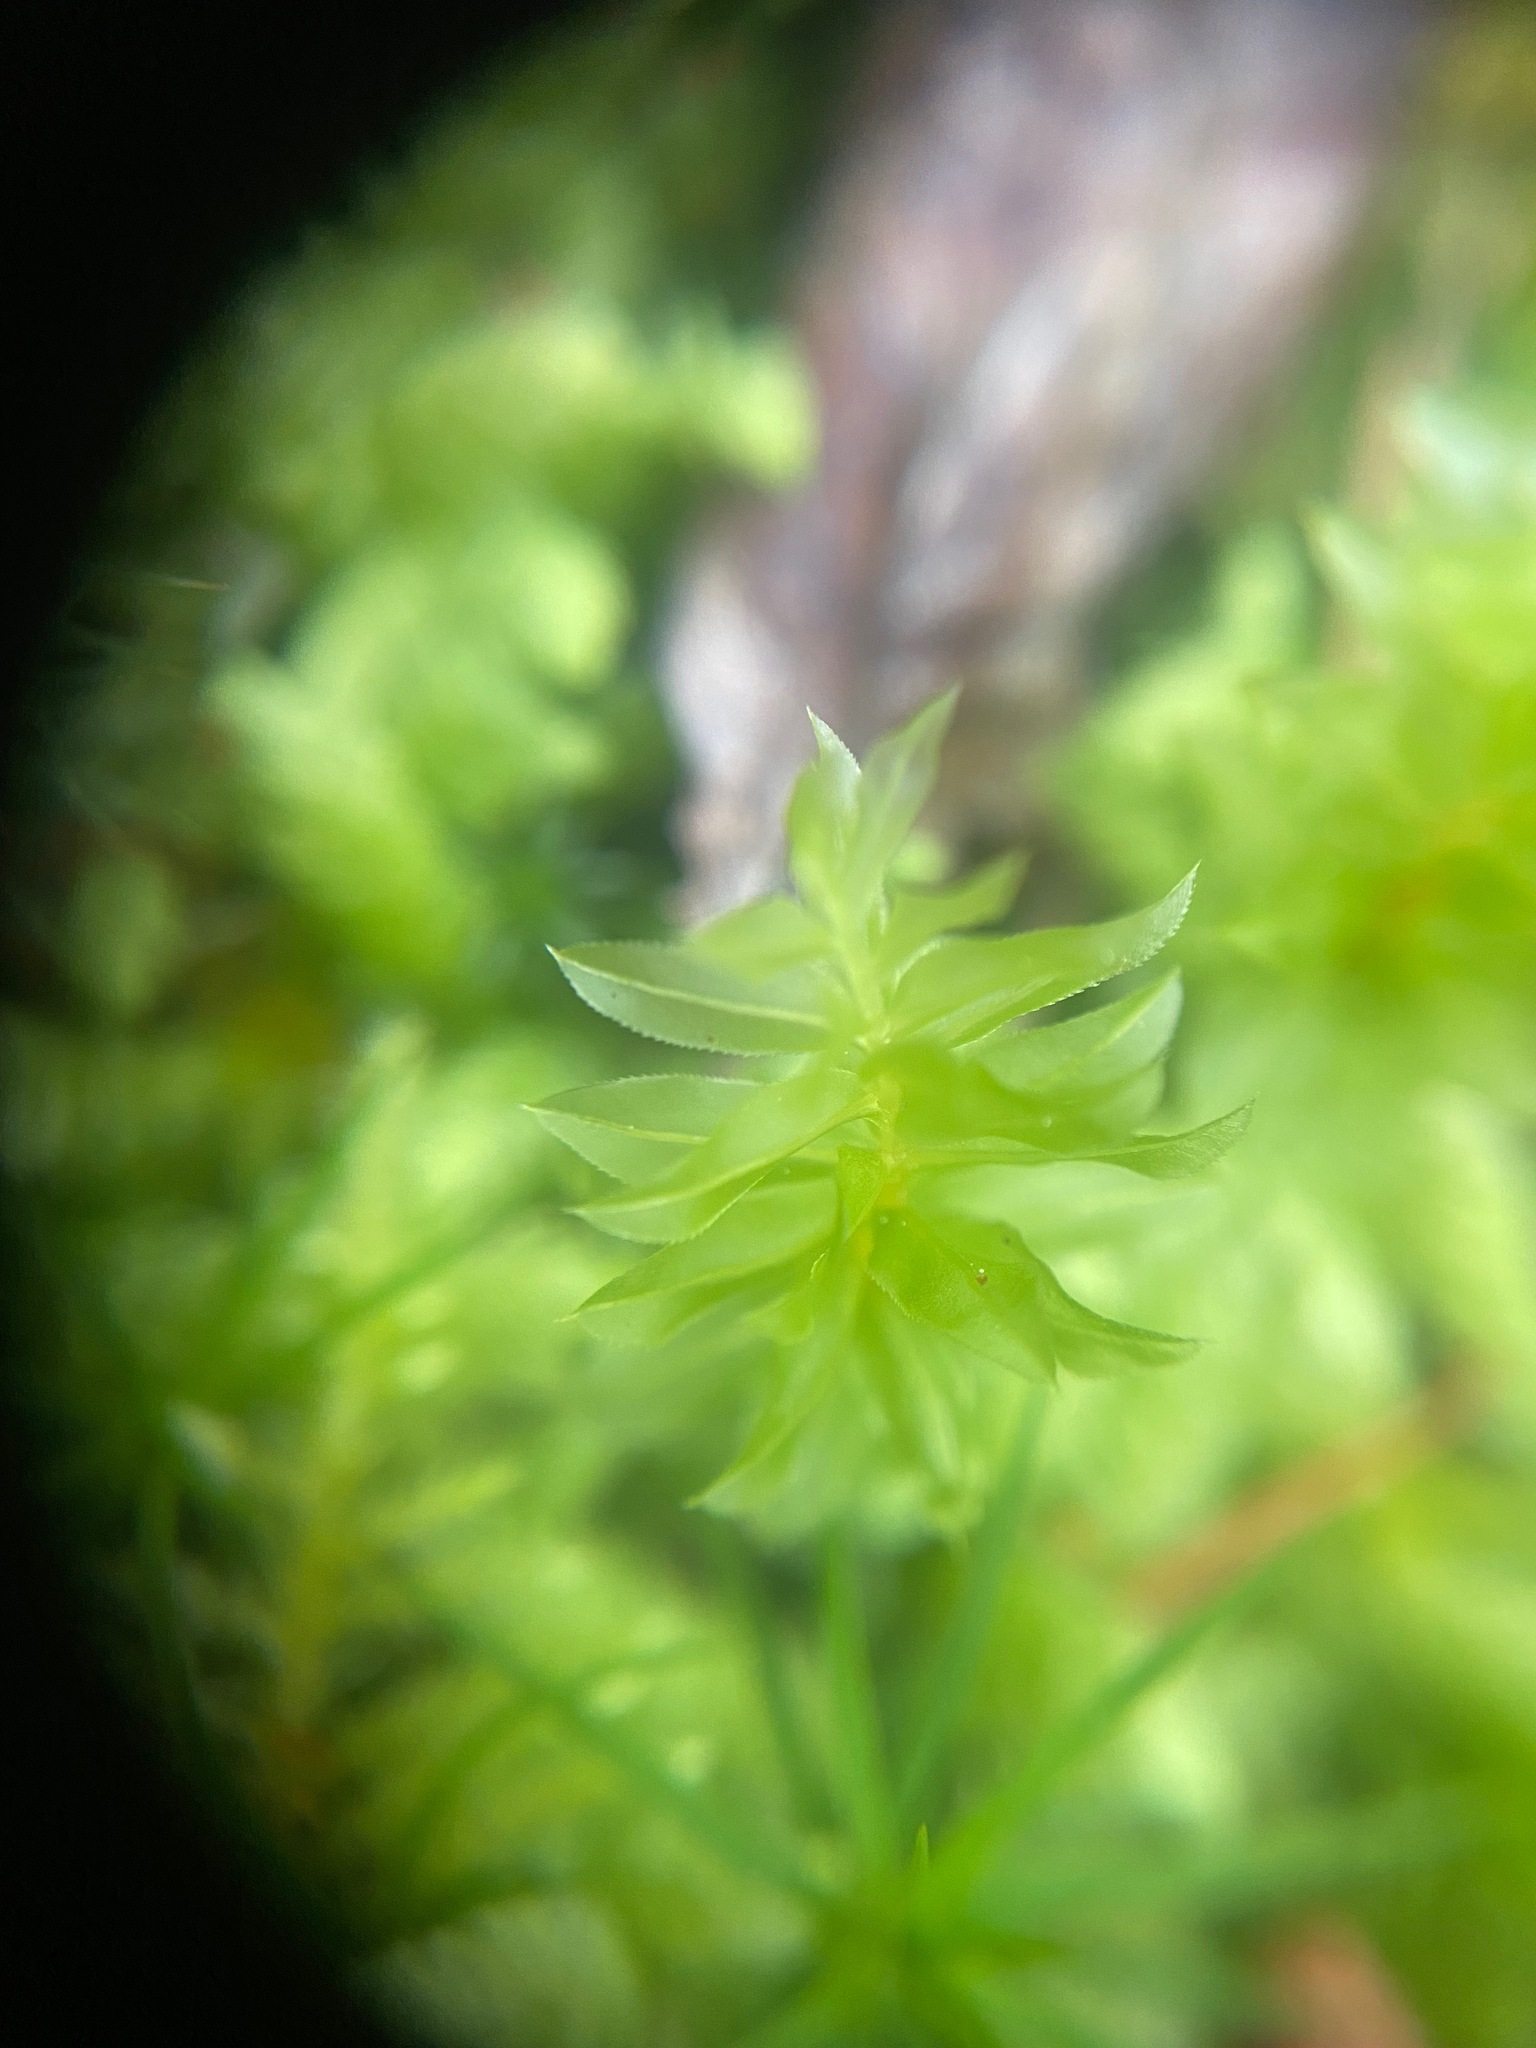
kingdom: Plantae
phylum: Bryophyta
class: Bryopsida
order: Bryales
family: Mniaceae
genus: Plagiomnium
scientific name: Plagiomnium insigne
